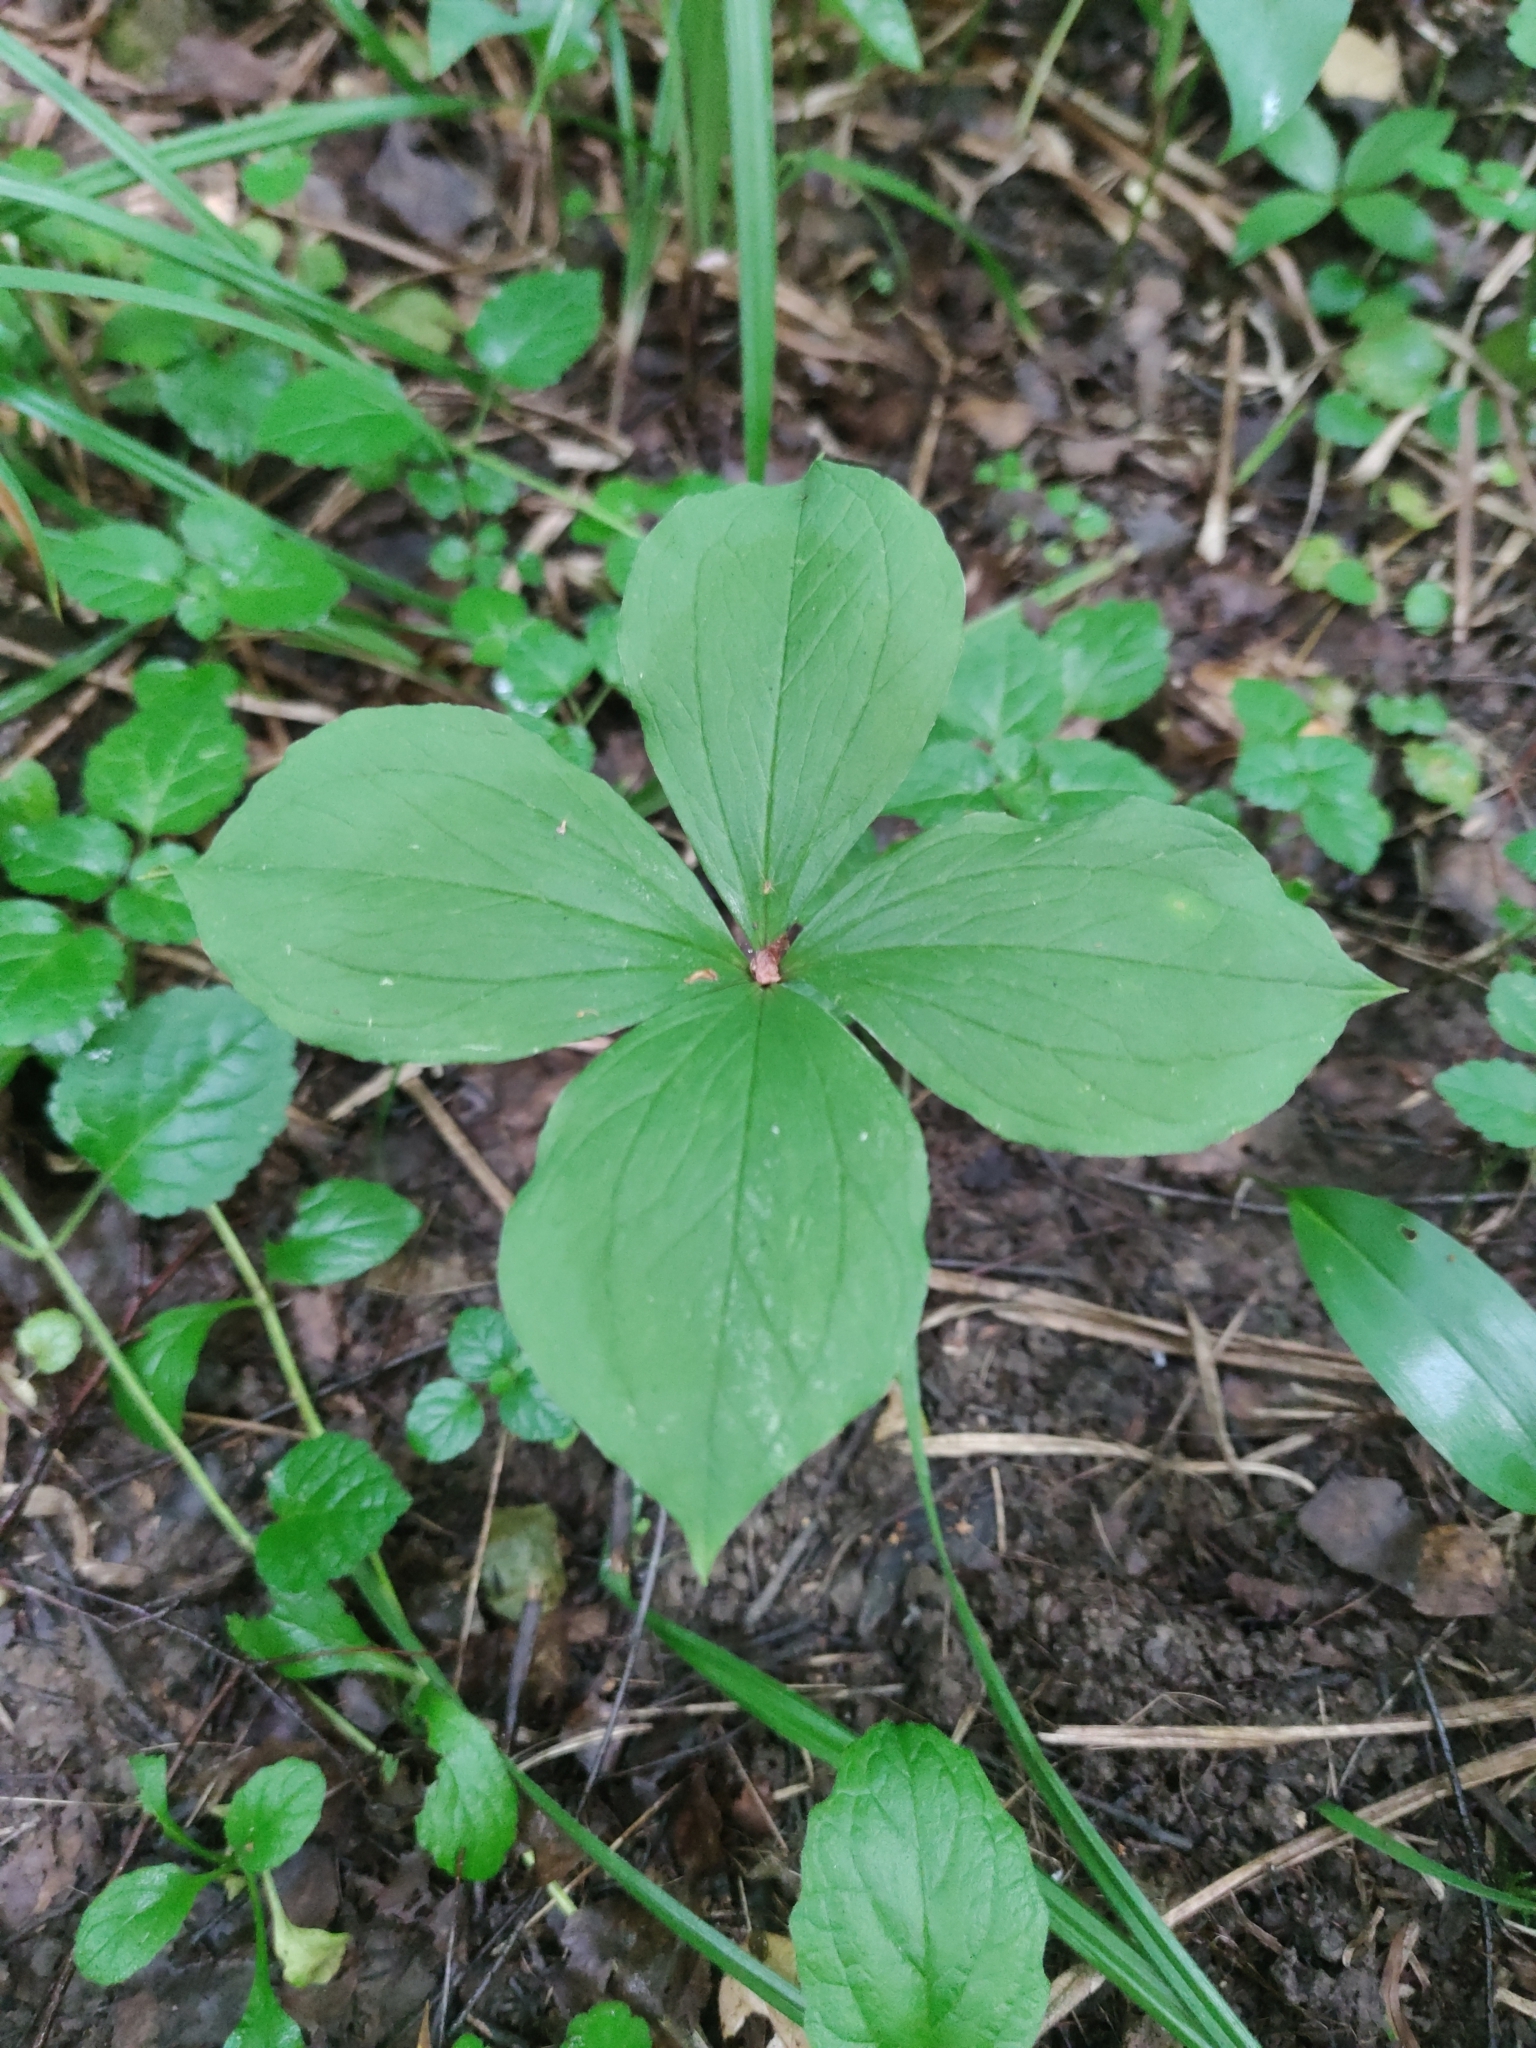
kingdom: Plantae
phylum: Tracheophyta
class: Liliopsida
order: Liliales
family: Melanthiaceae
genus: Paris
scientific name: Paris quadrifolia
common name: Herb-paris
